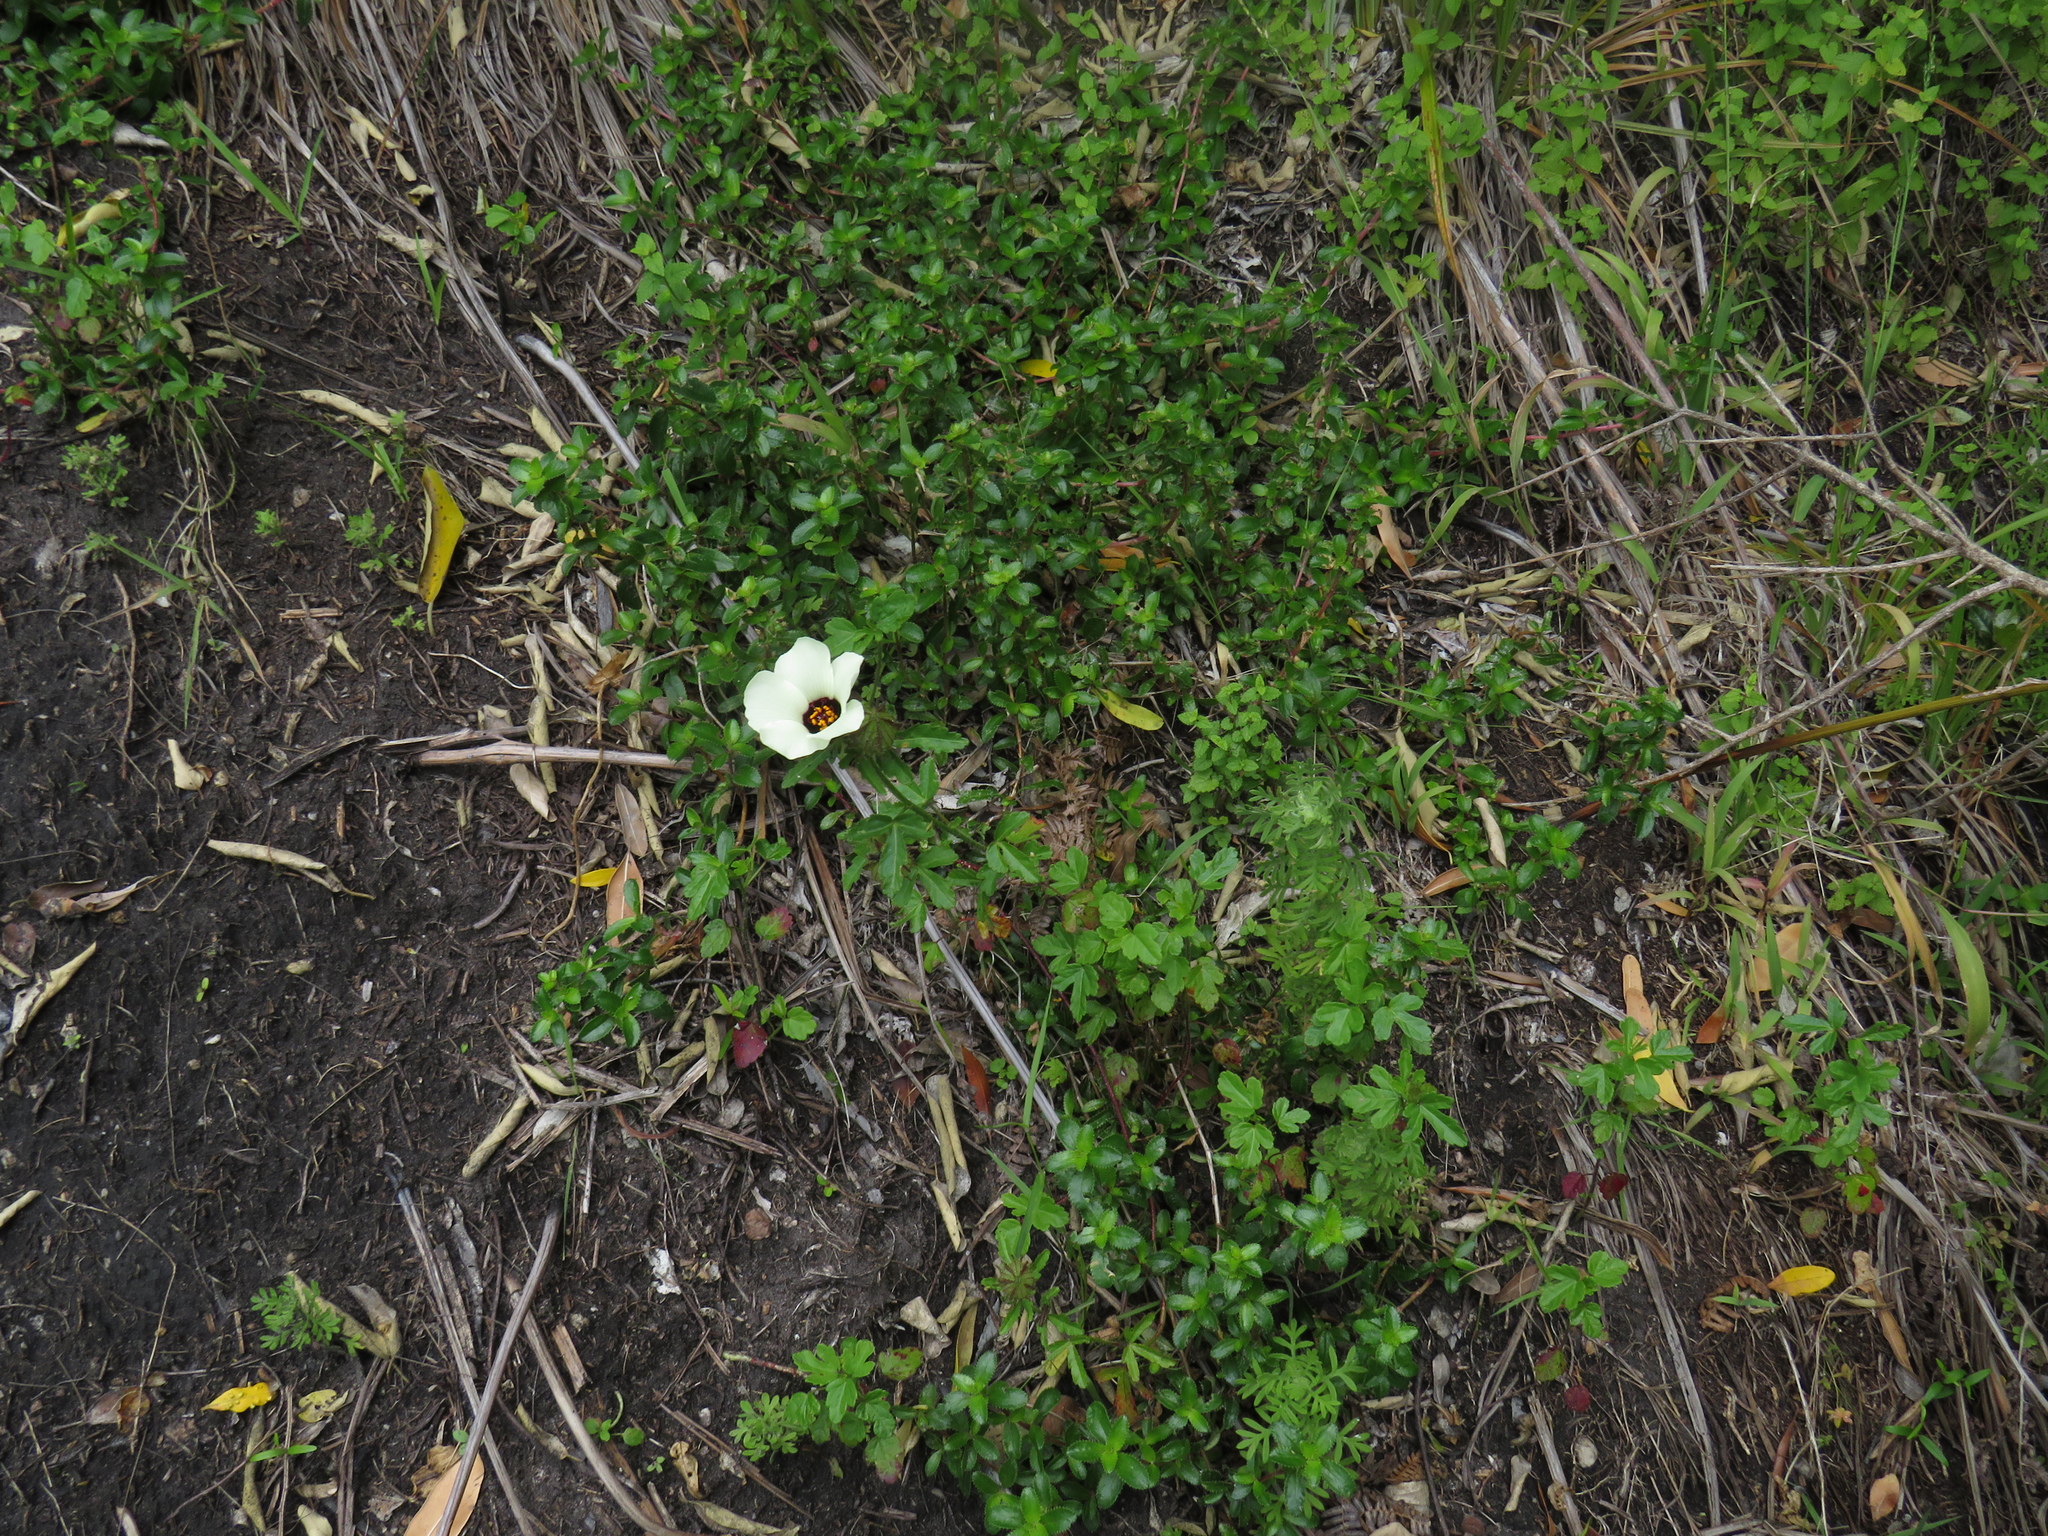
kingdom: Plantae
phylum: Tracheophyta
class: Magnoliopsida
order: Malvales
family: Malvaceae
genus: Hibiscus
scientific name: Hibiscus trionum
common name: Bladder ketmia
